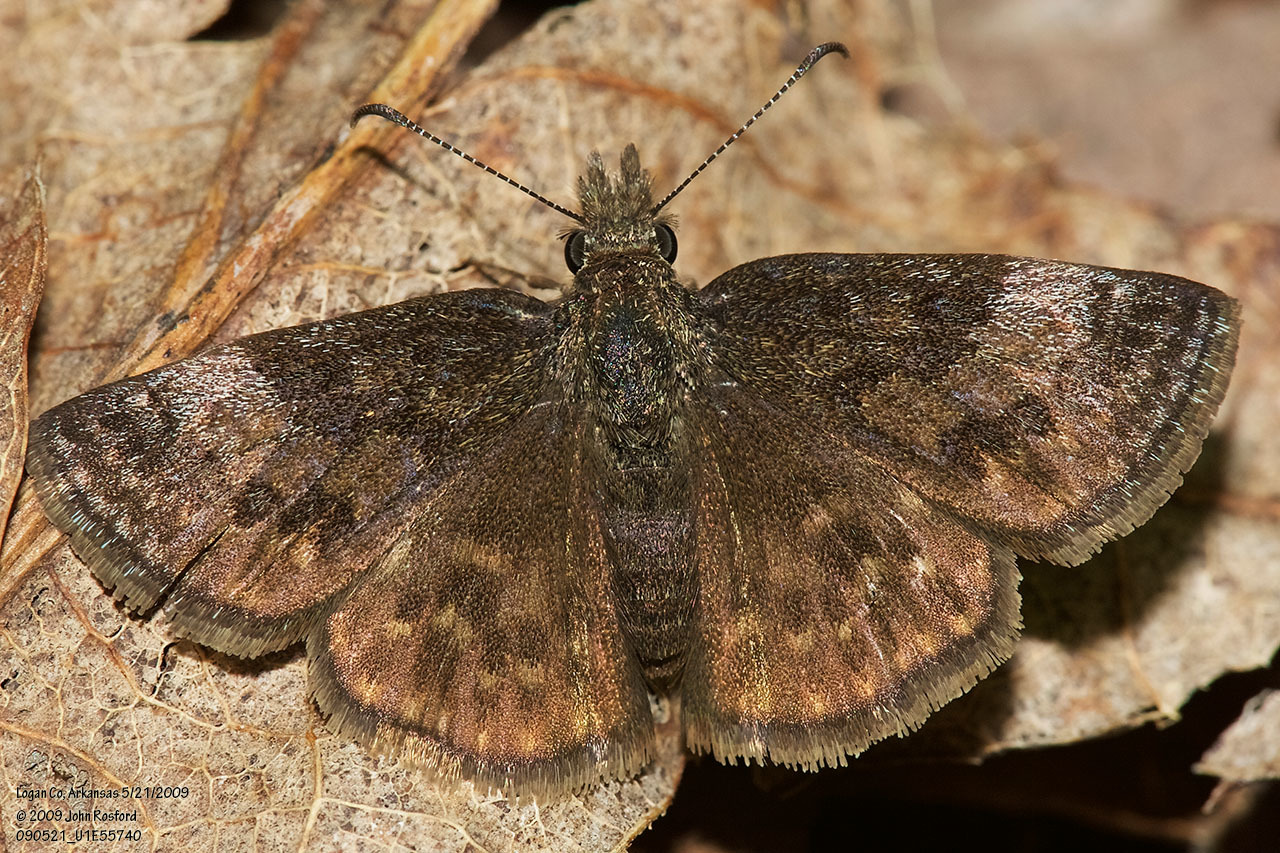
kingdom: Animalia
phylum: Arthropoda
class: Insecta
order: Lepidoptera
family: Hesperiidae
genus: Erynnis
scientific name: Erynnis icelus
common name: Dreamy duskywing
